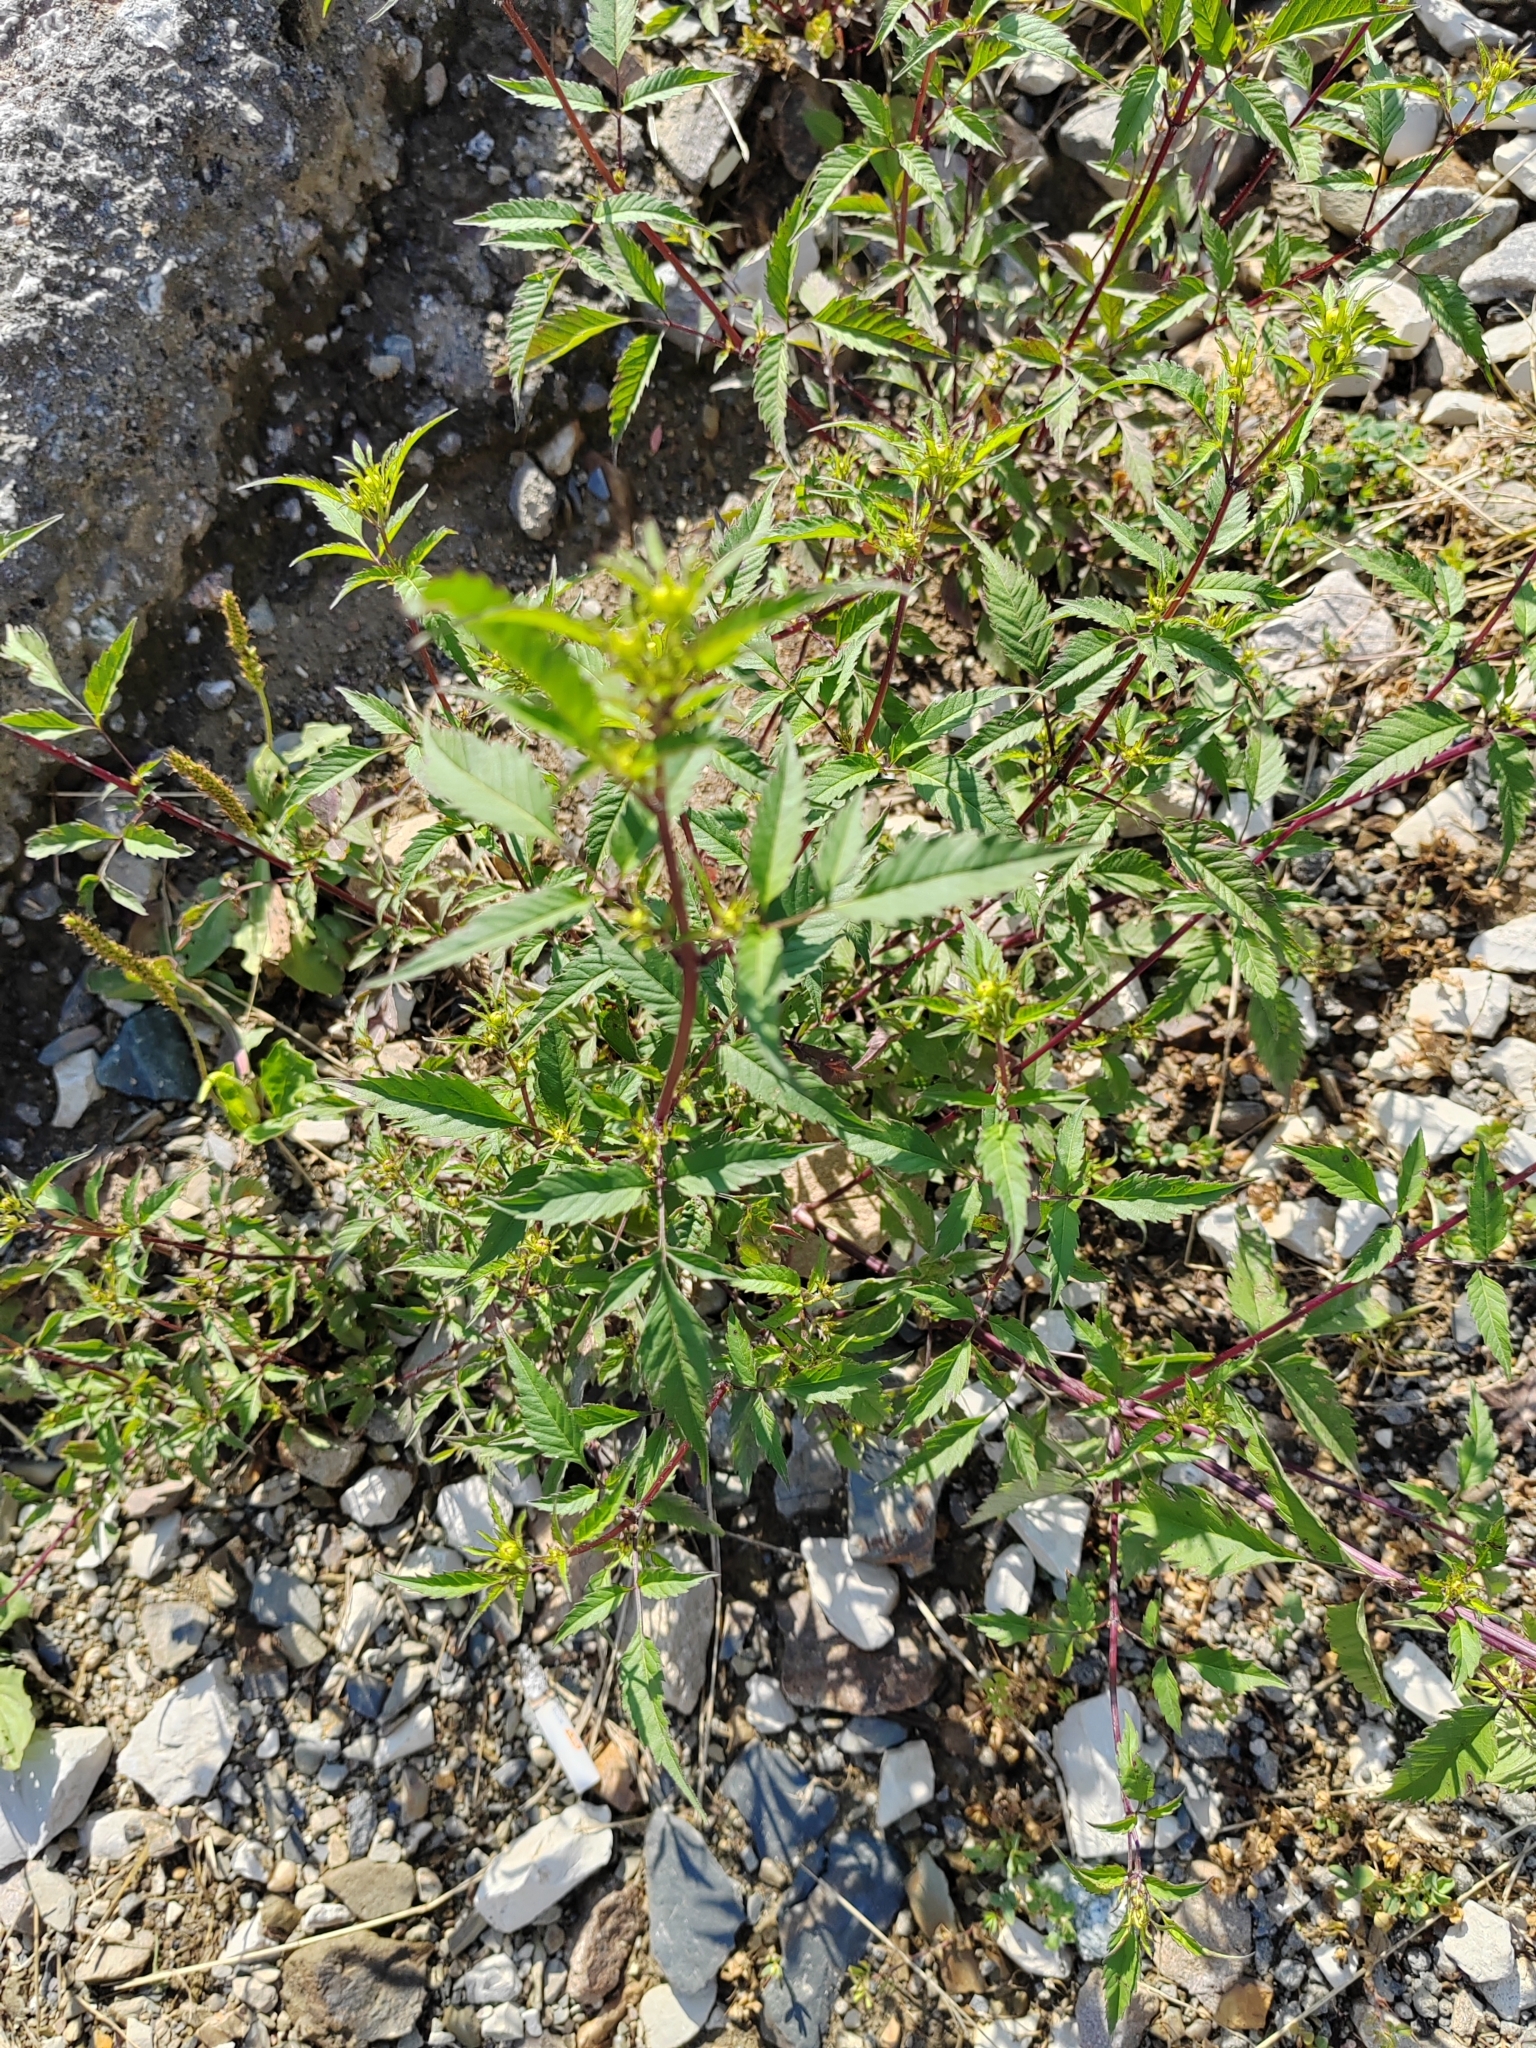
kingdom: Plantae
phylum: Tracheophyta
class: Magnoliopsida
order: Asterales
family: Asteraceae
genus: Bidens
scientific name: Bidens frondosa
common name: Beggarticks
